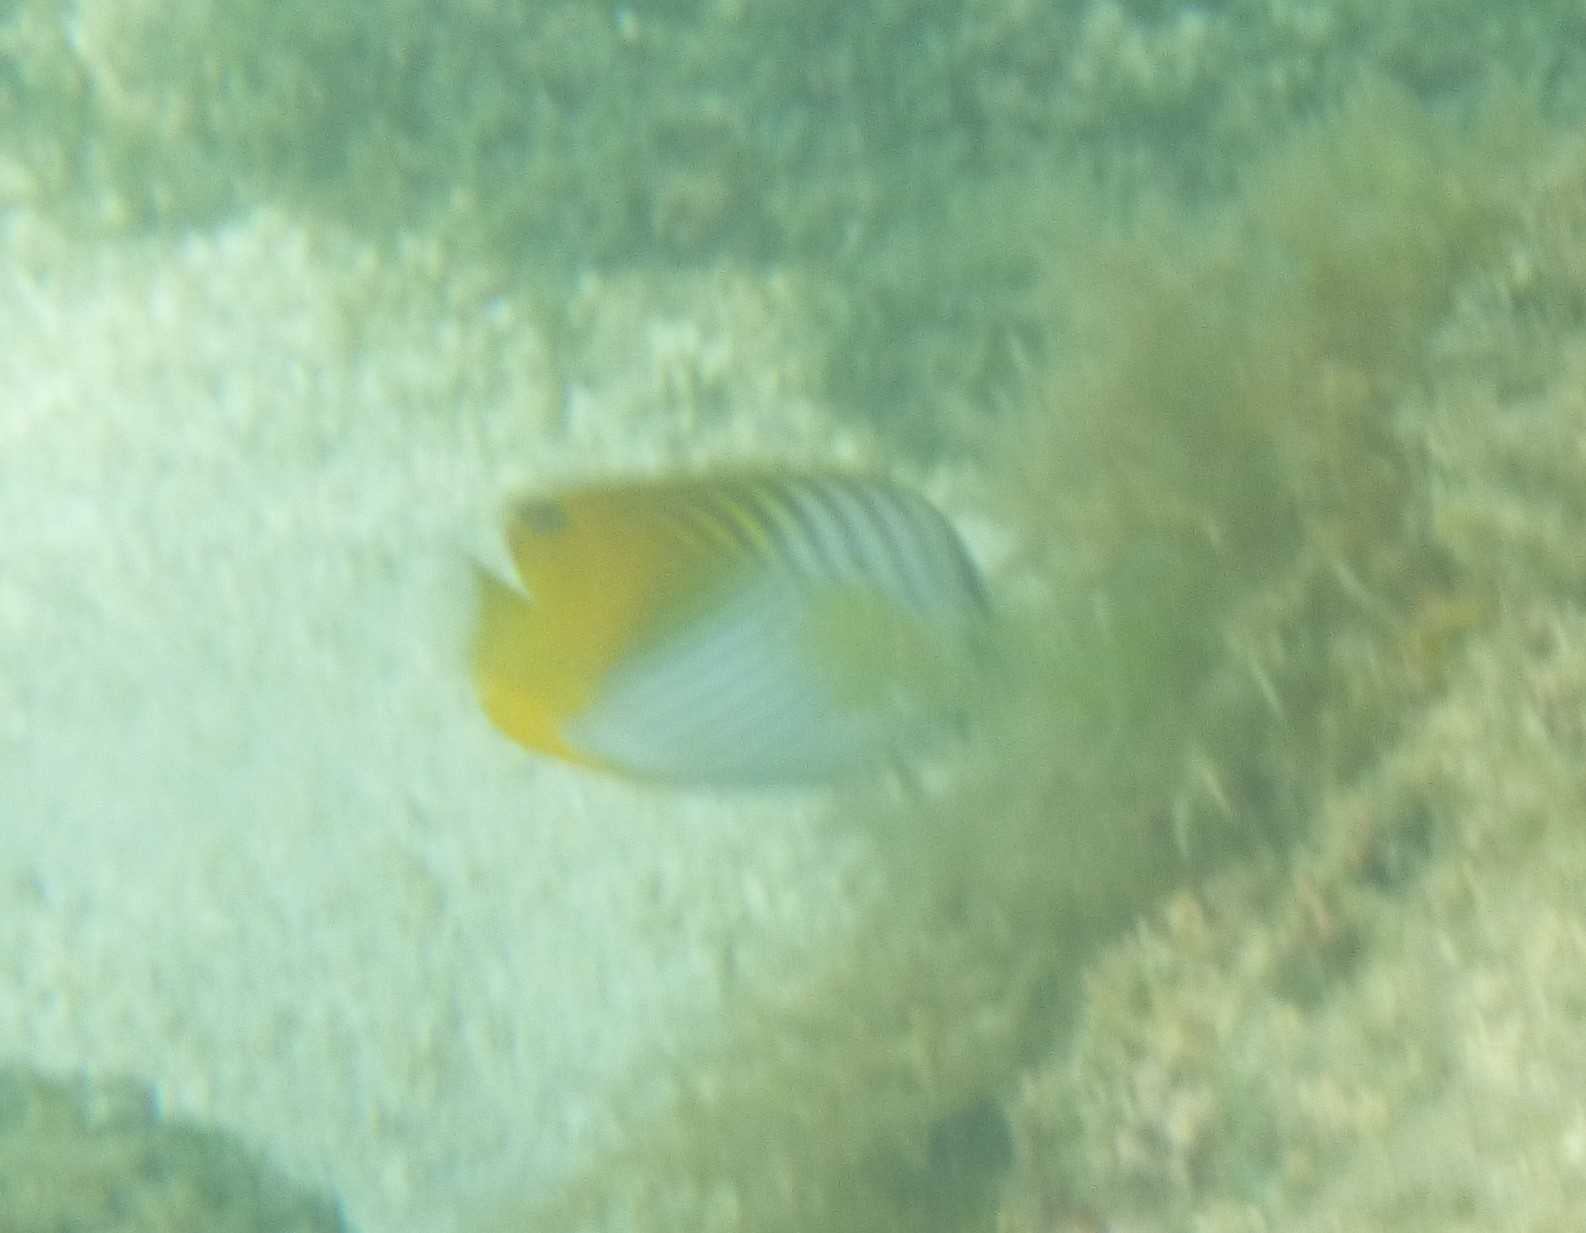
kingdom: Animalia
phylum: Chordata
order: Perciformes
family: Chaetodontidae
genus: Chaetodon
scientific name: Chaetodon auriga
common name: Threadfin butterflyfish
